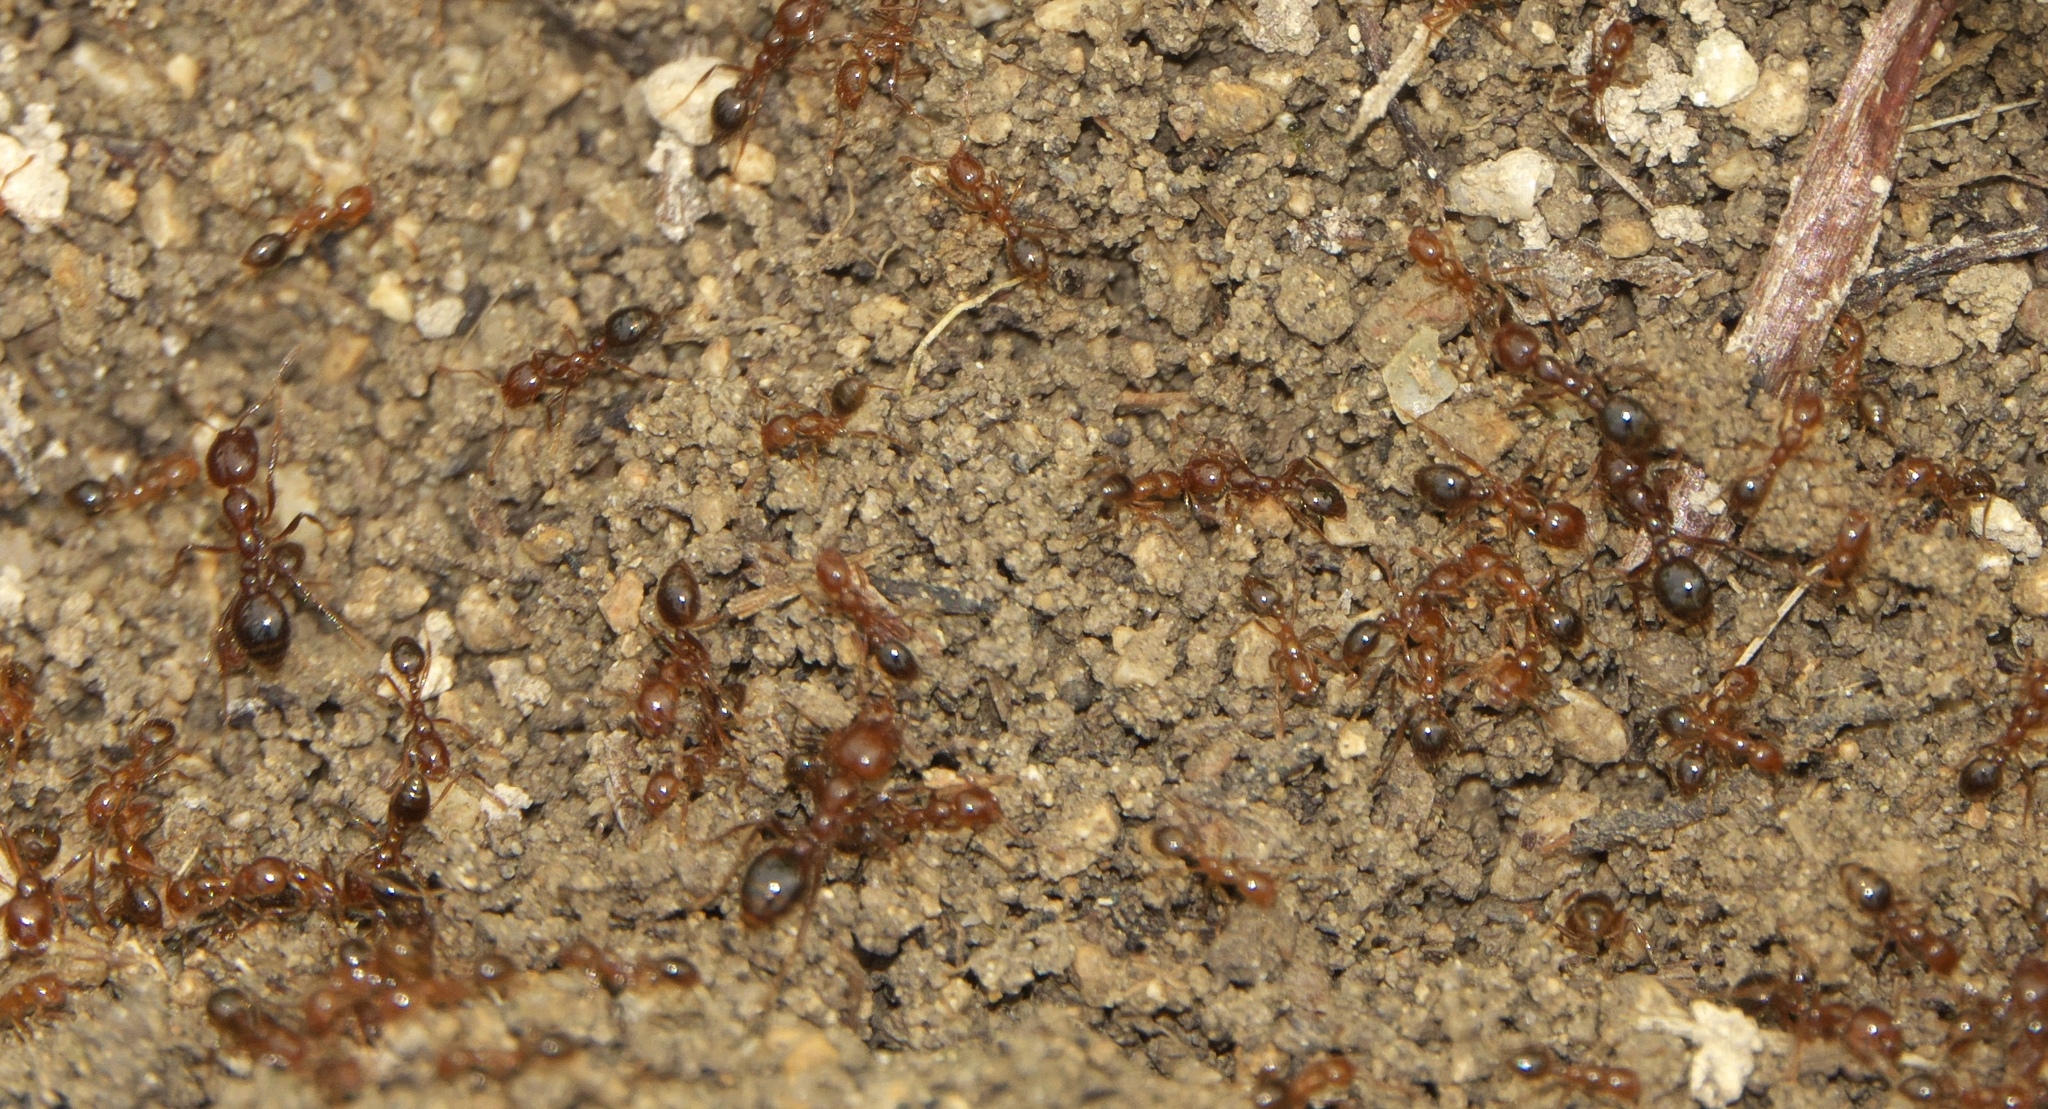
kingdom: Animalia
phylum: Arthropoda
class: Insecta
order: Hymenoptera
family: Formicidae
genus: Solenopsis
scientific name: Solenopsis invicta
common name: Red imported fire ant
